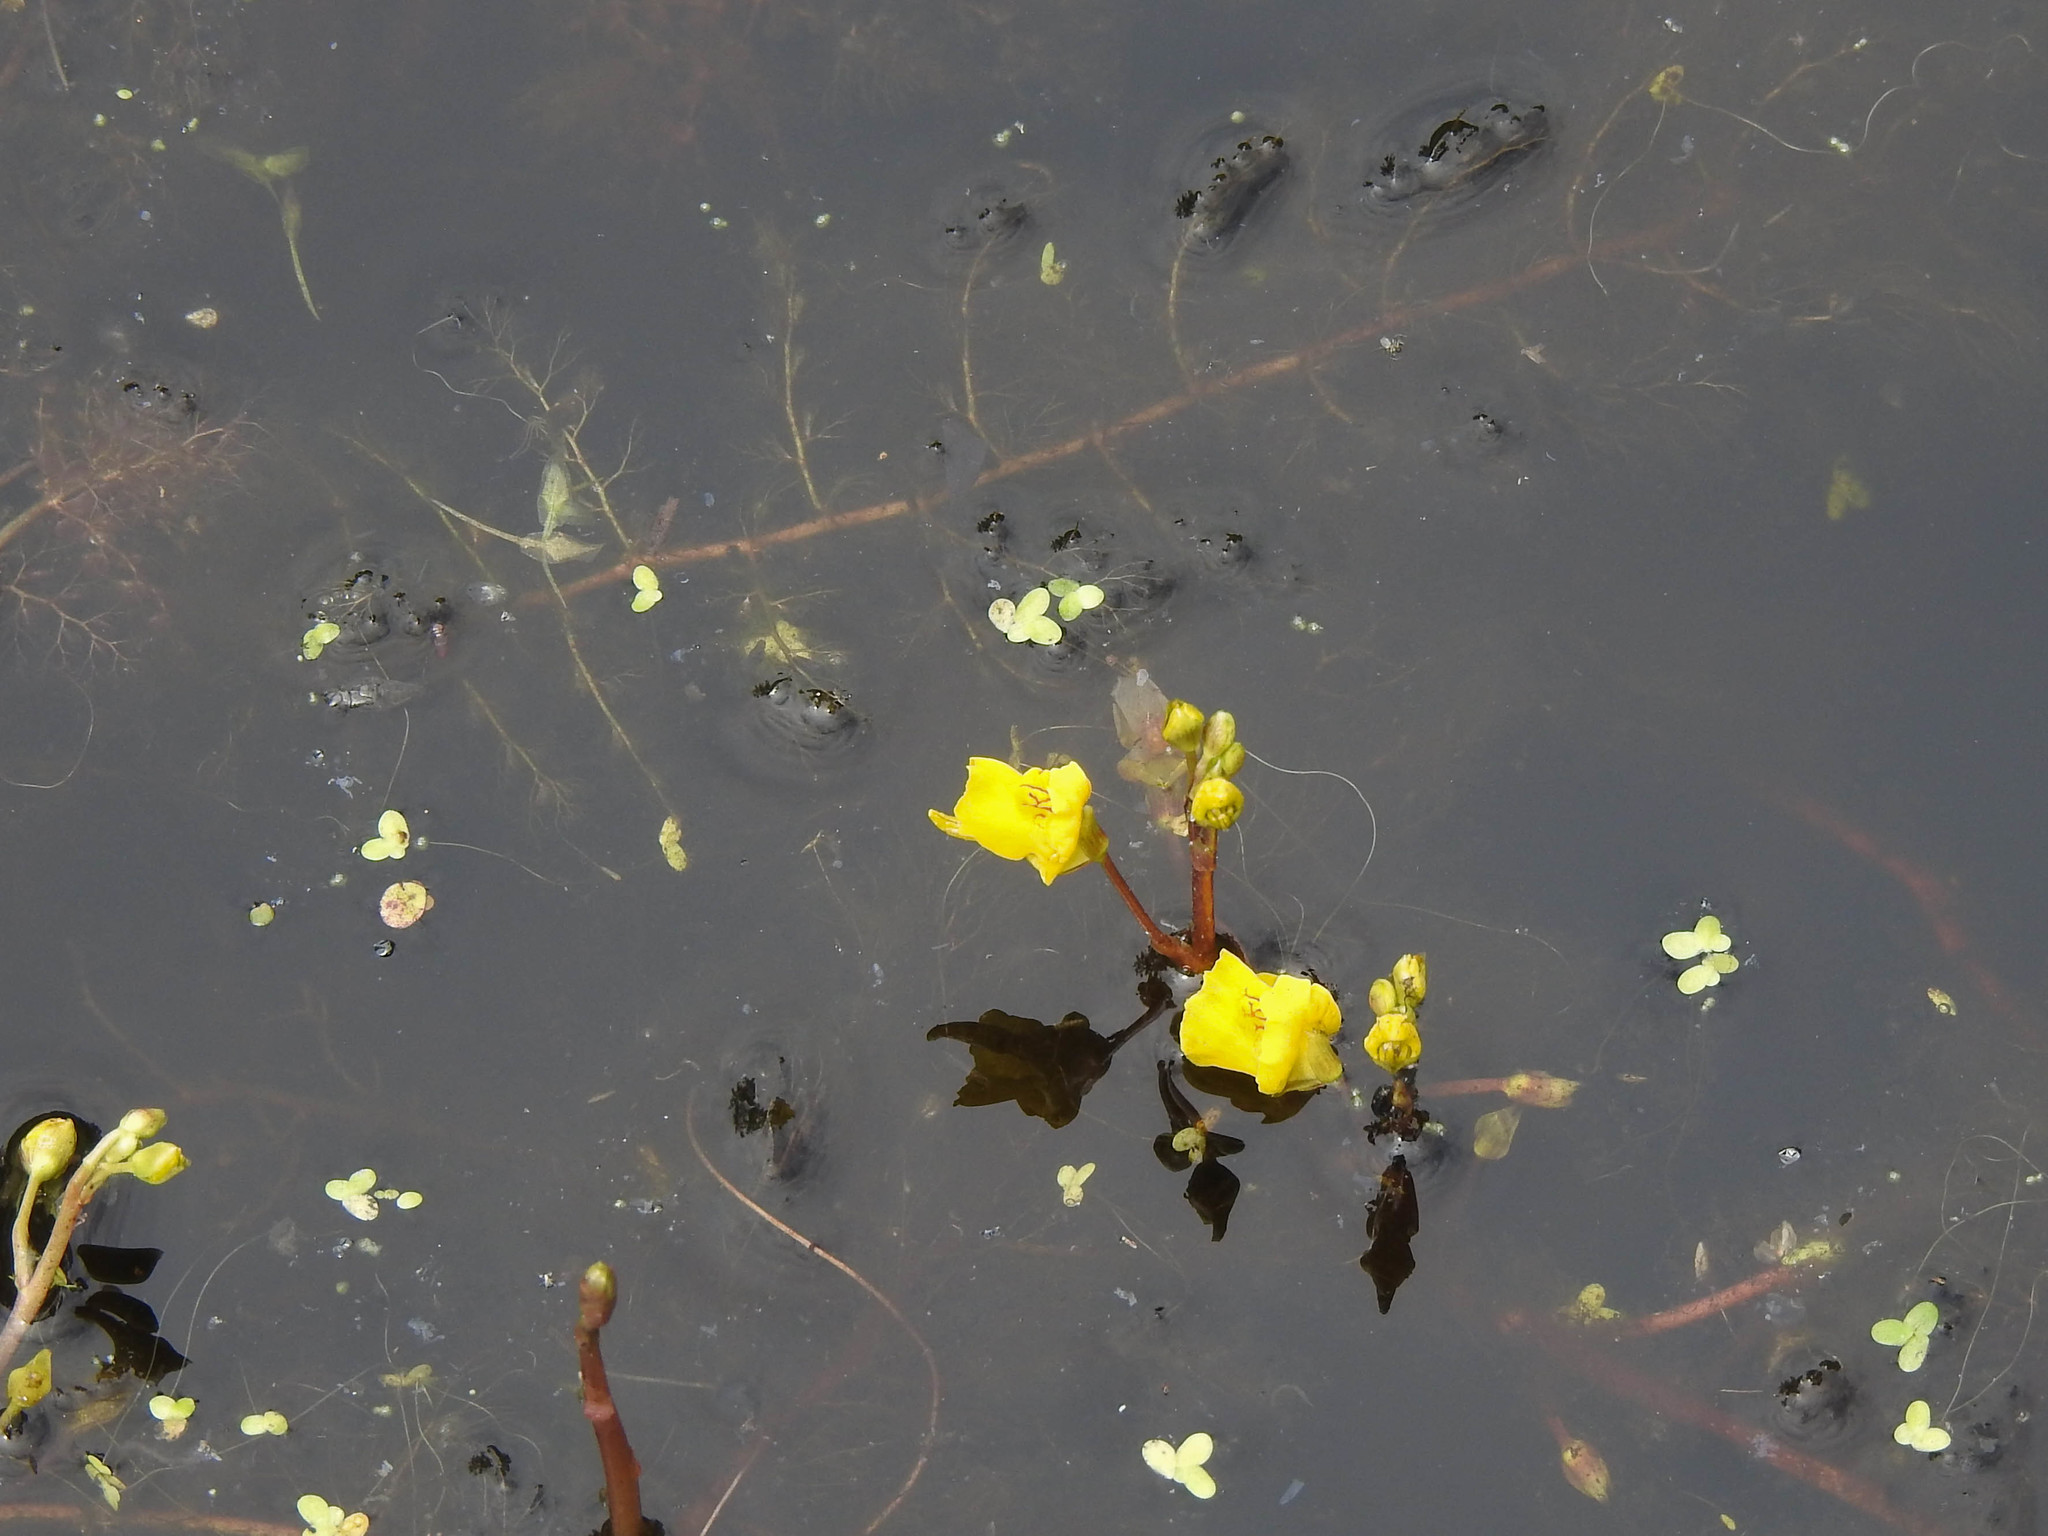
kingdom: Plantae
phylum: Tracheophyta
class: Magnoliopsida
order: Lamiales
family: Lentibulariaceae
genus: Utricularia
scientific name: Utricularia macrorhiza
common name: Common bladderwort
